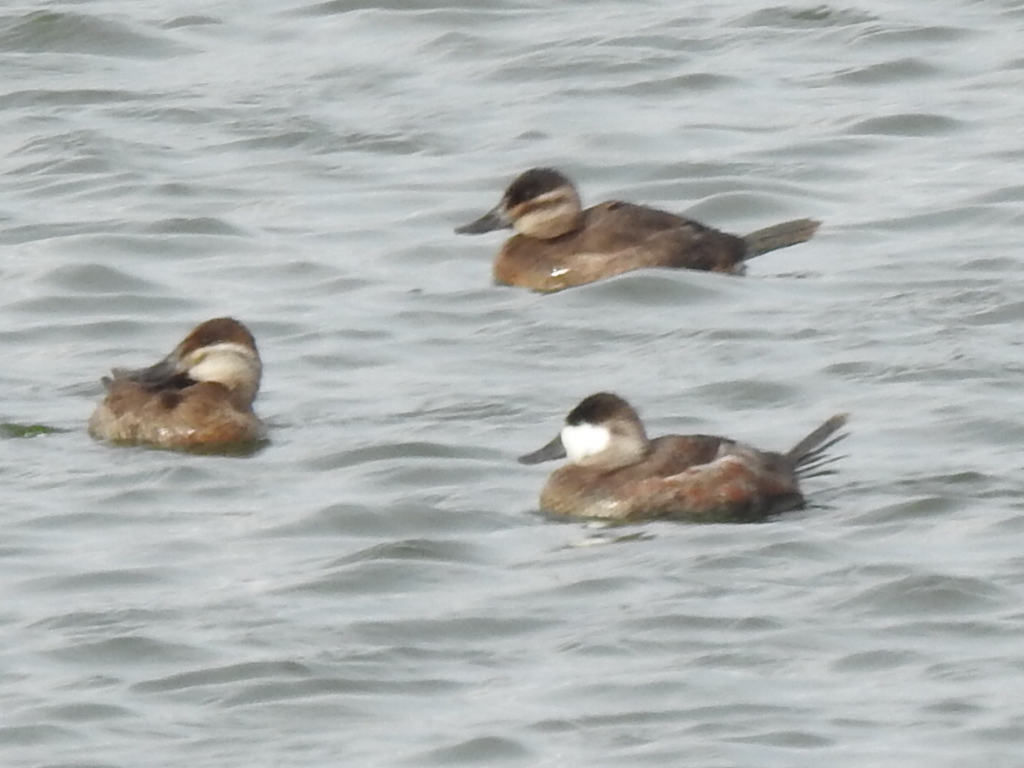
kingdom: Animalia
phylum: Chordata
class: Aves
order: Anseriformes
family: Anatidae
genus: Oxyura
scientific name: Oxyura jamaicensis
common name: Ruddy duck
